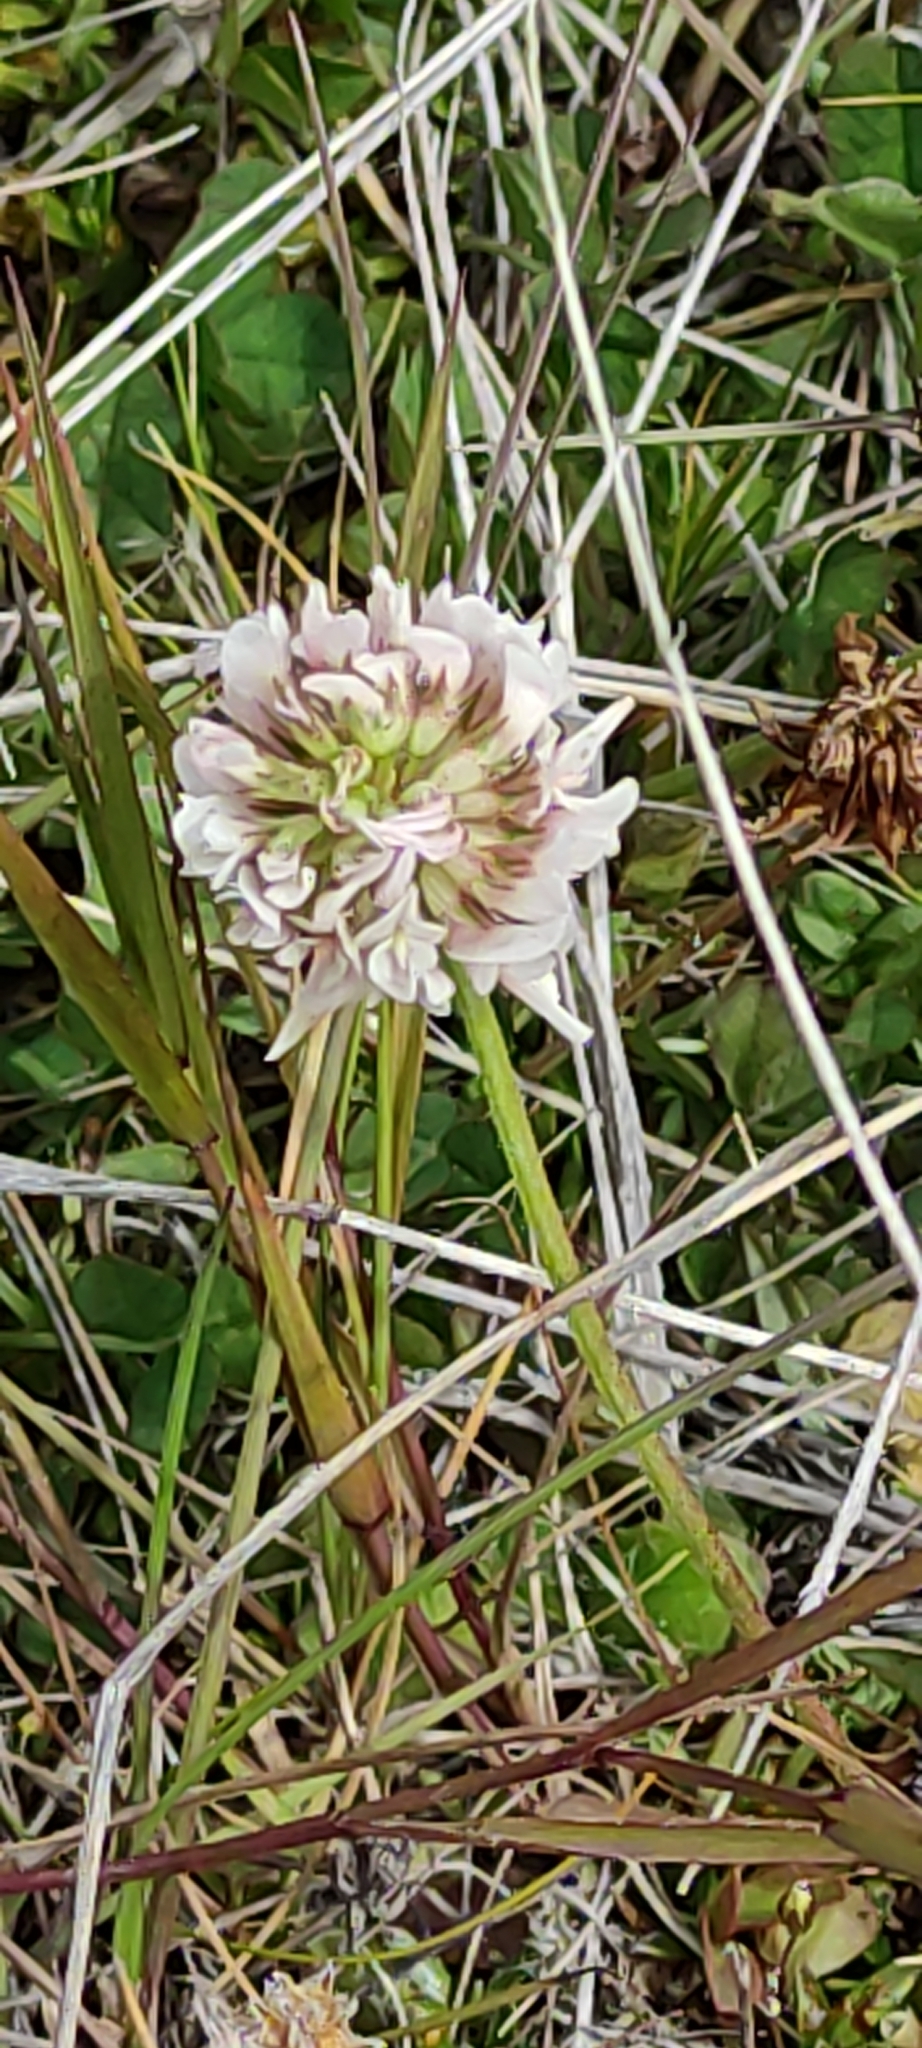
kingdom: Plantae
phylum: Tracheophyta
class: Magnoliopsida
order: Fabales
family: Fabaceae
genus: Trifolium
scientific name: Trifolium repens
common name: White clover
